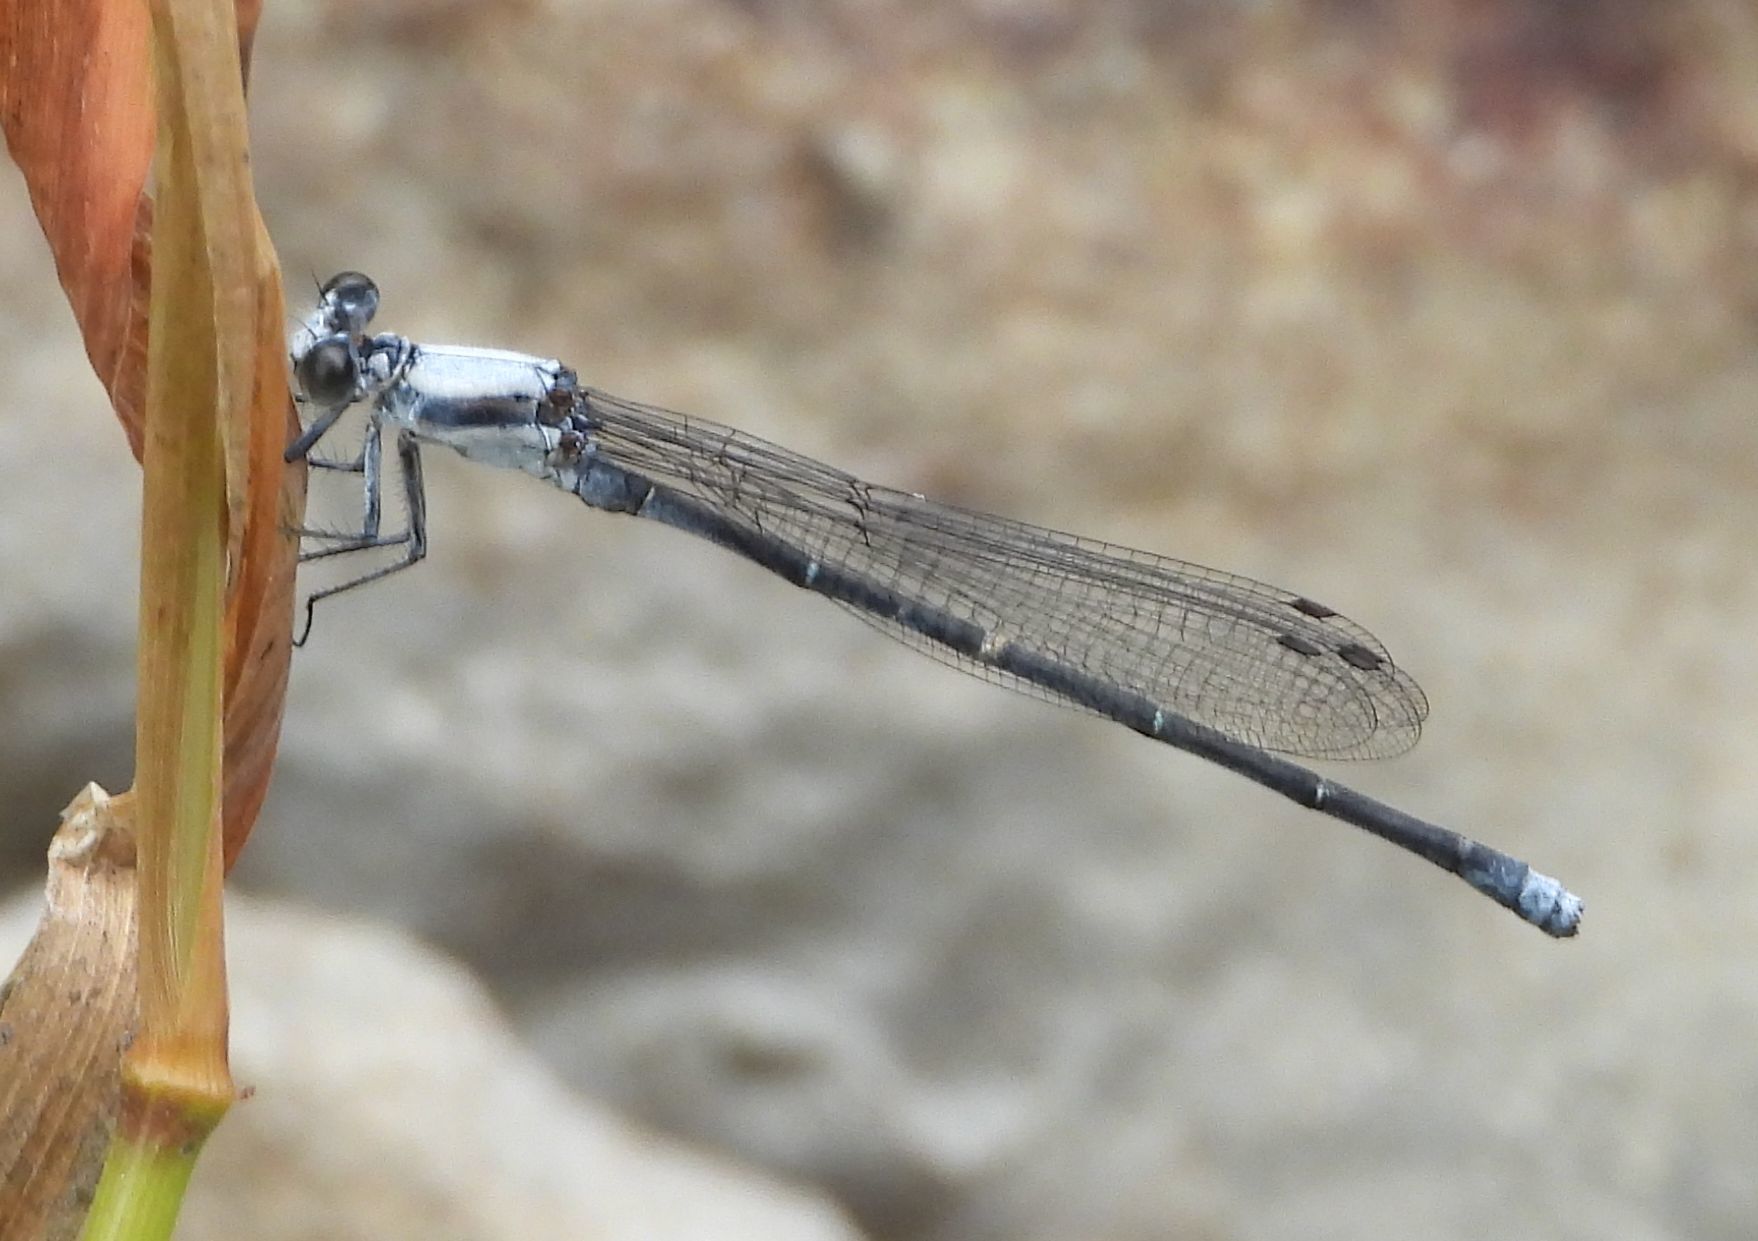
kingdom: Animalia
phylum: Arthropoda
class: Insecta
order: Odonata
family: Coenagrionidae
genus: Argia
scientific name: Argia moesta
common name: Powdered dancer
